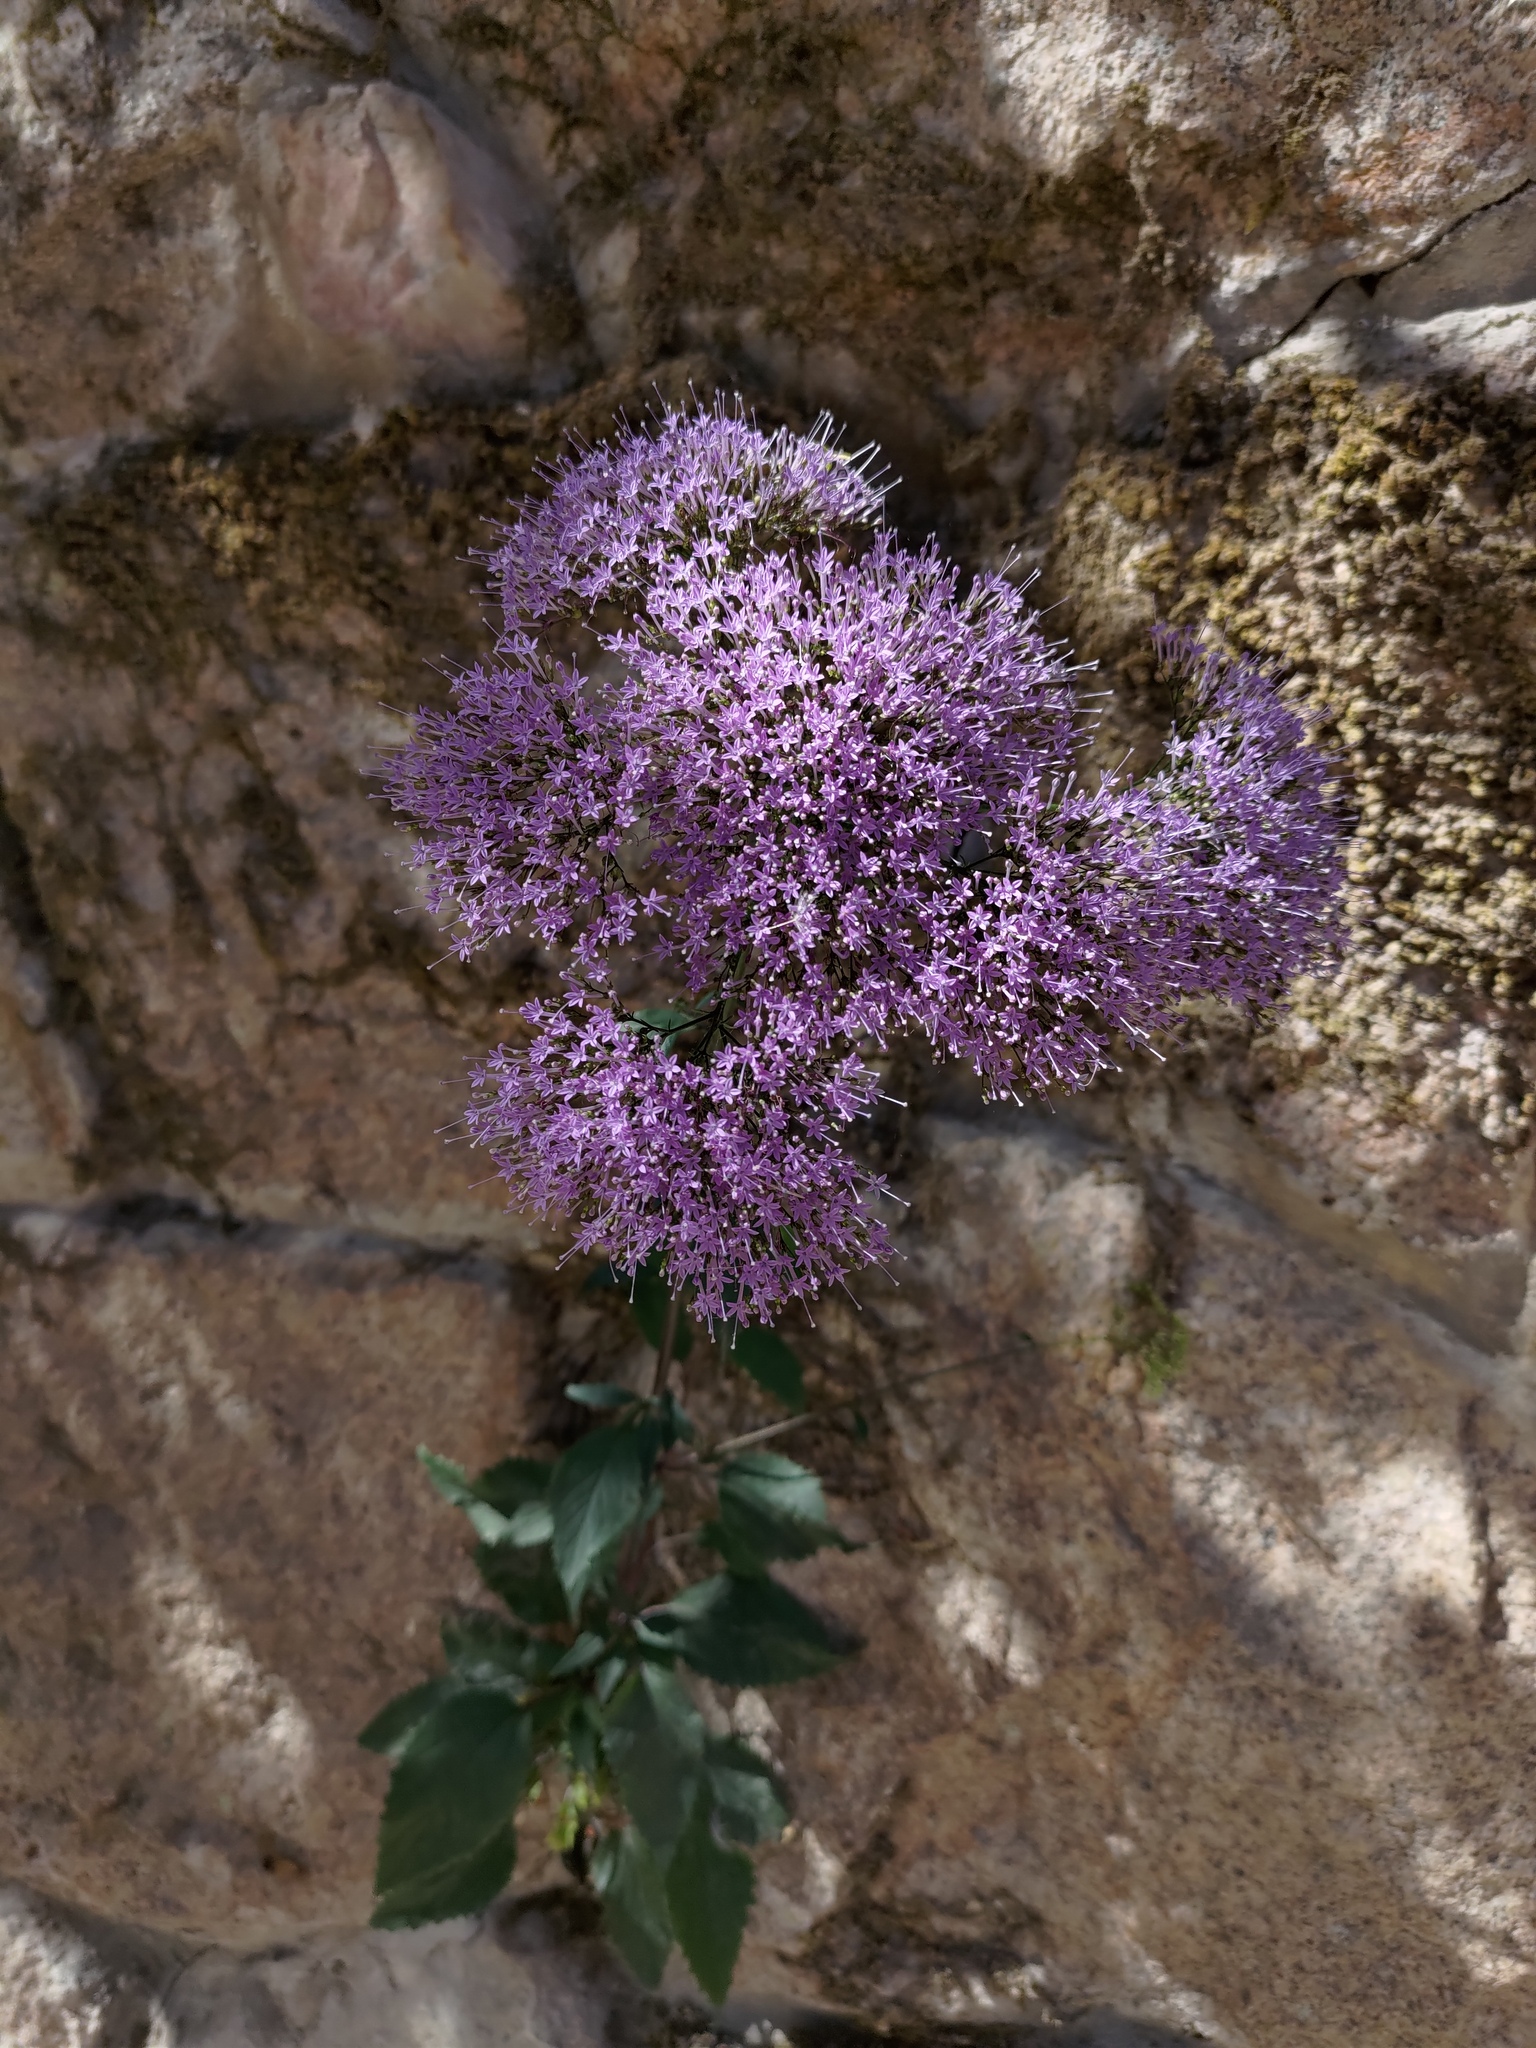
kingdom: Plantae
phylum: Tracheophyta
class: Magnoliopsida
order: Asterales
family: Campanulaceae
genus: Trachelium
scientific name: Trachelium caeruleum
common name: Throatwort
